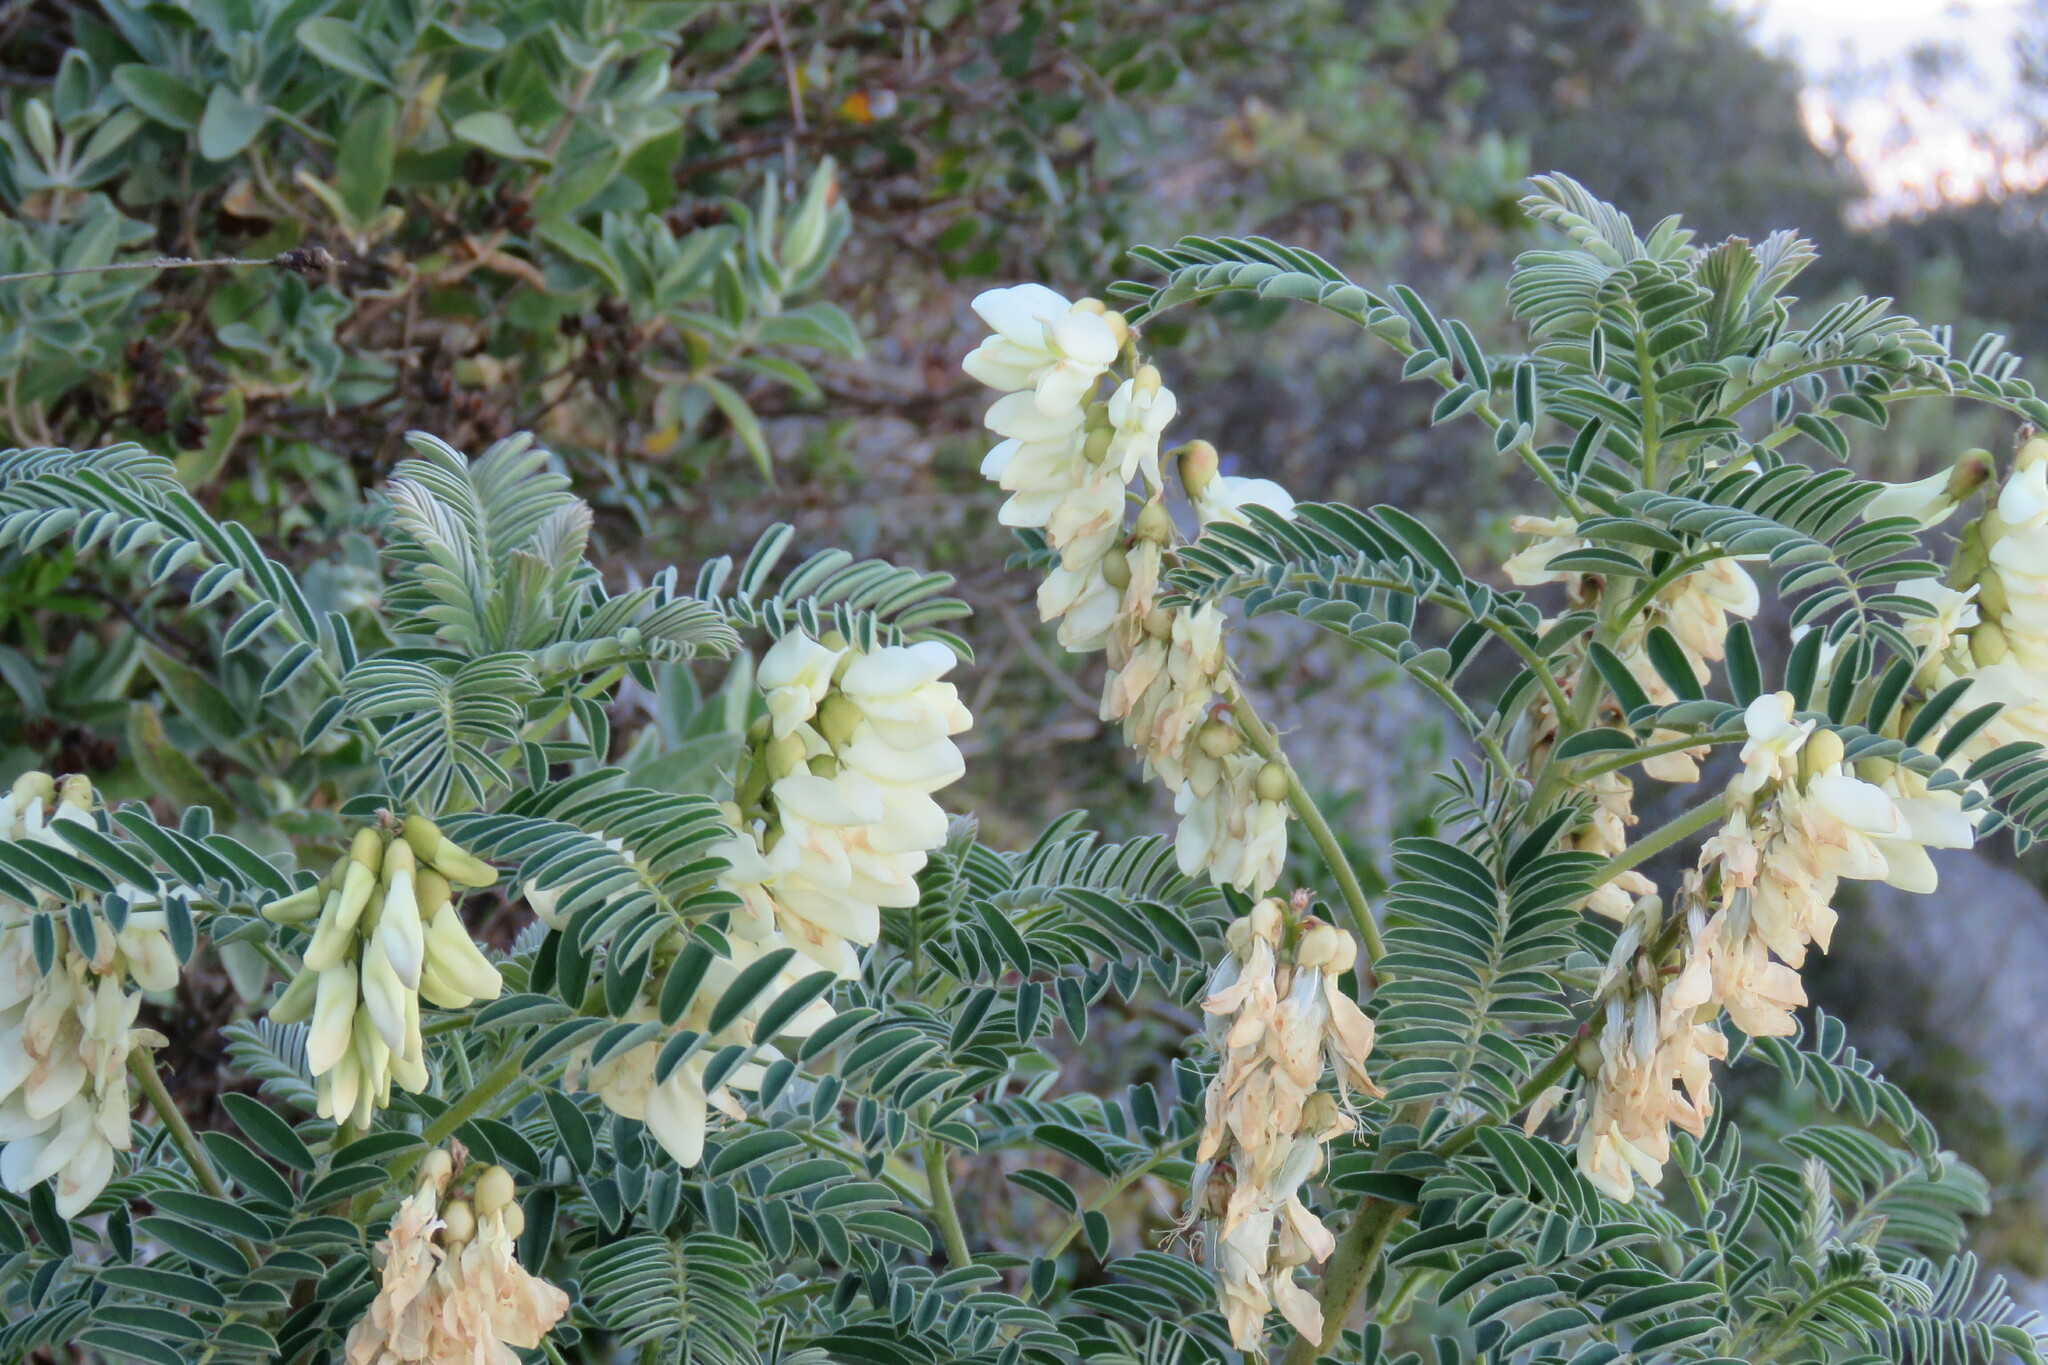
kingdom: Plantae
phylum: Tracheophyta
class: Magnoliopsida
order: Fabales
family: Fabaceae
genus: Erophaca
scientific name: Erophaca baetica
